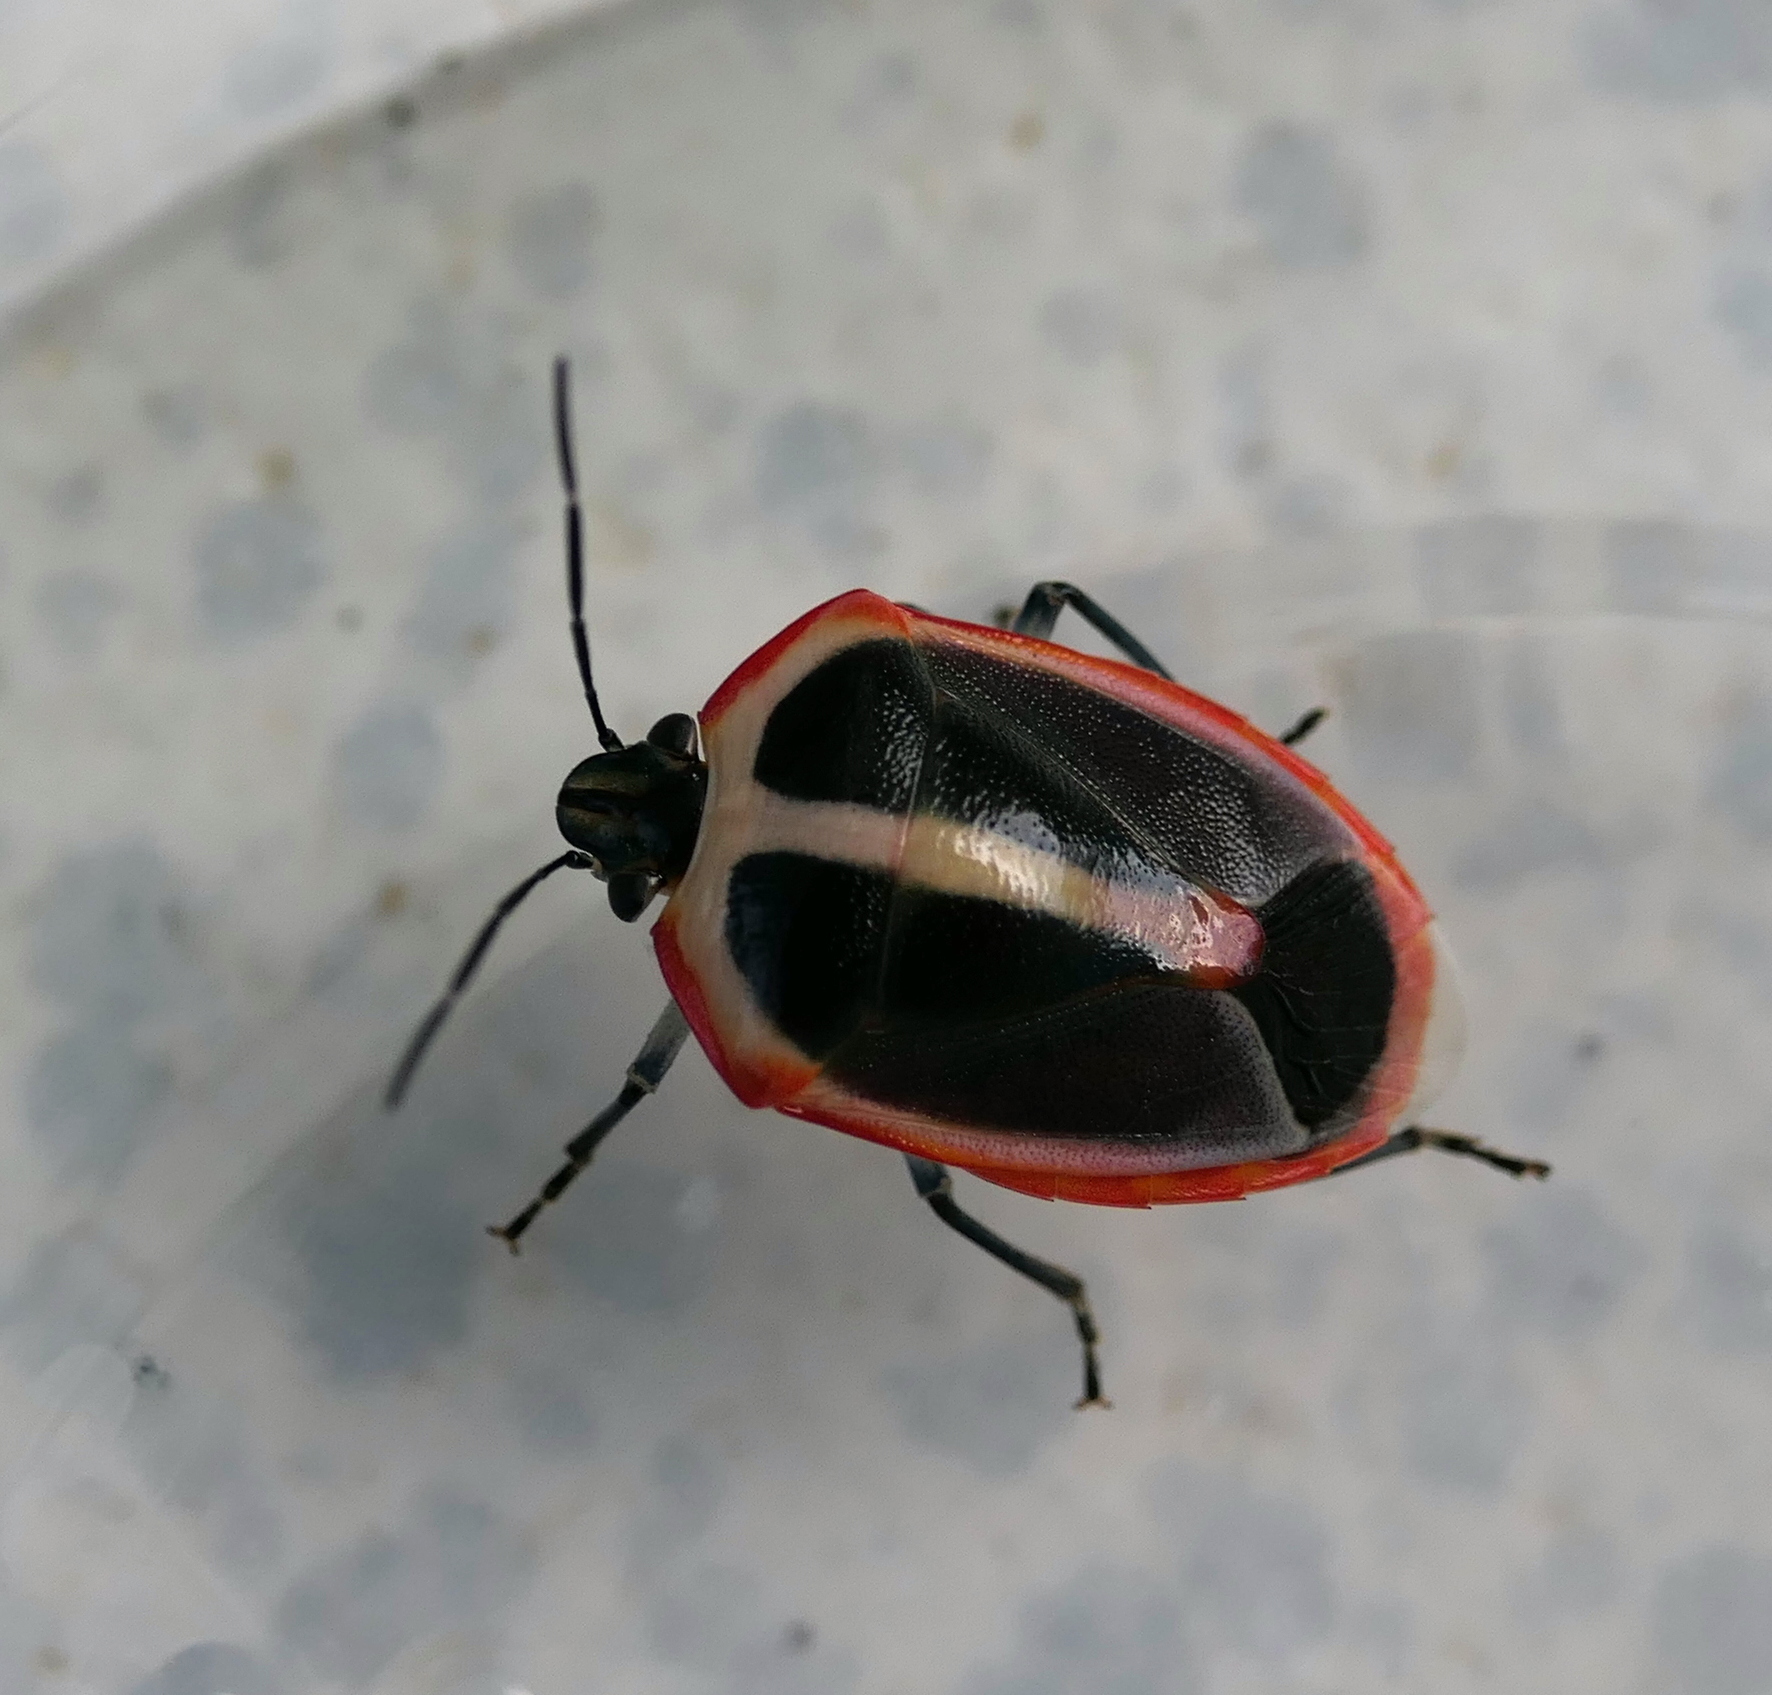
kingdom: Animalia
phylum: Arthropoda
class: Insecta
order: Hemiptera
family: Pentatomidae
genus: Roferta
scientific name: Roferta marginalis
